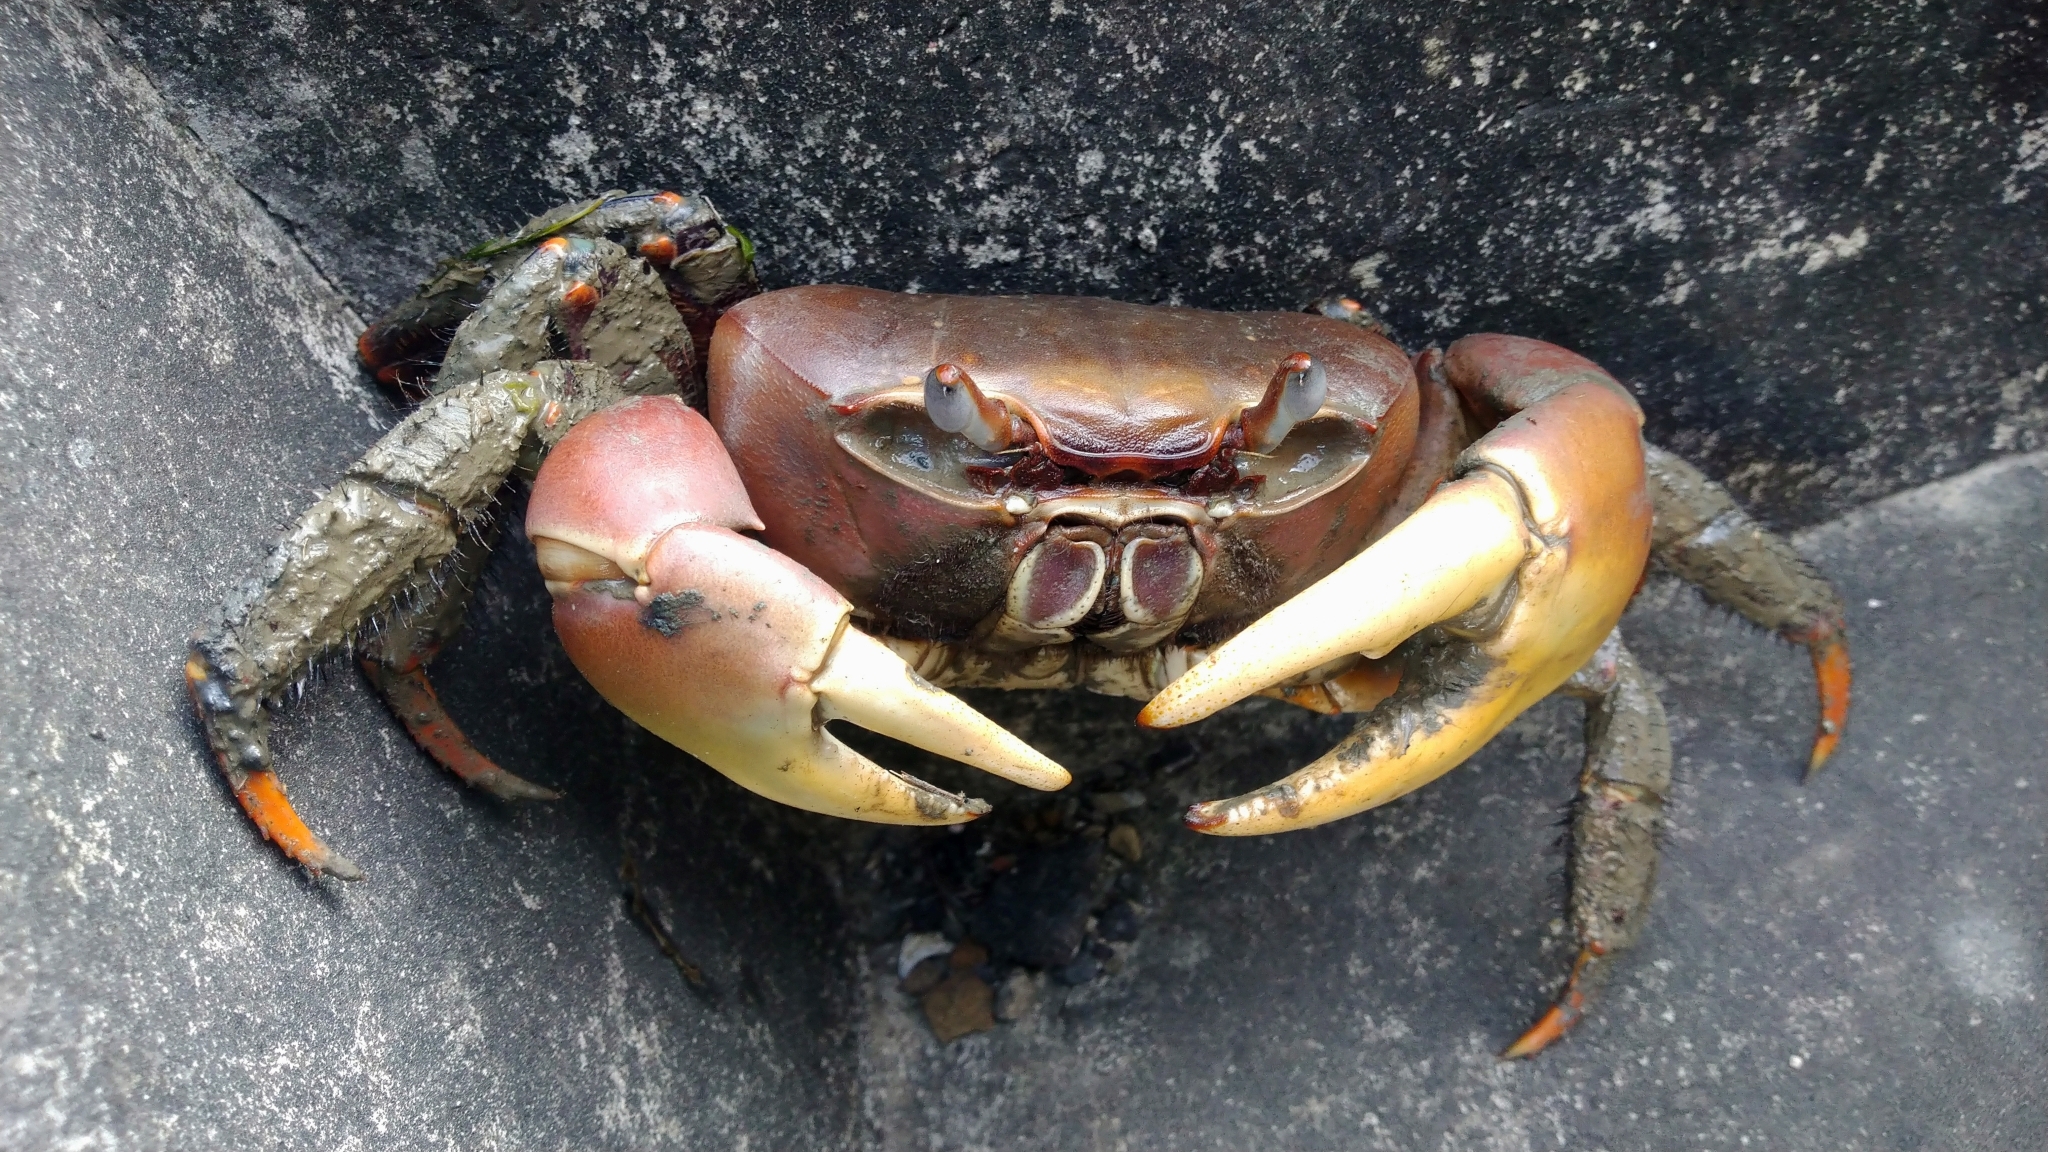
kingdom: Animalia
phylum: Arthropoda
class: Malacostraca
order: Decapoda
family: Gecarcinidae
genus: Cardisoma
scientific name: Cardisoma carnifex
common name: Brown land crab
